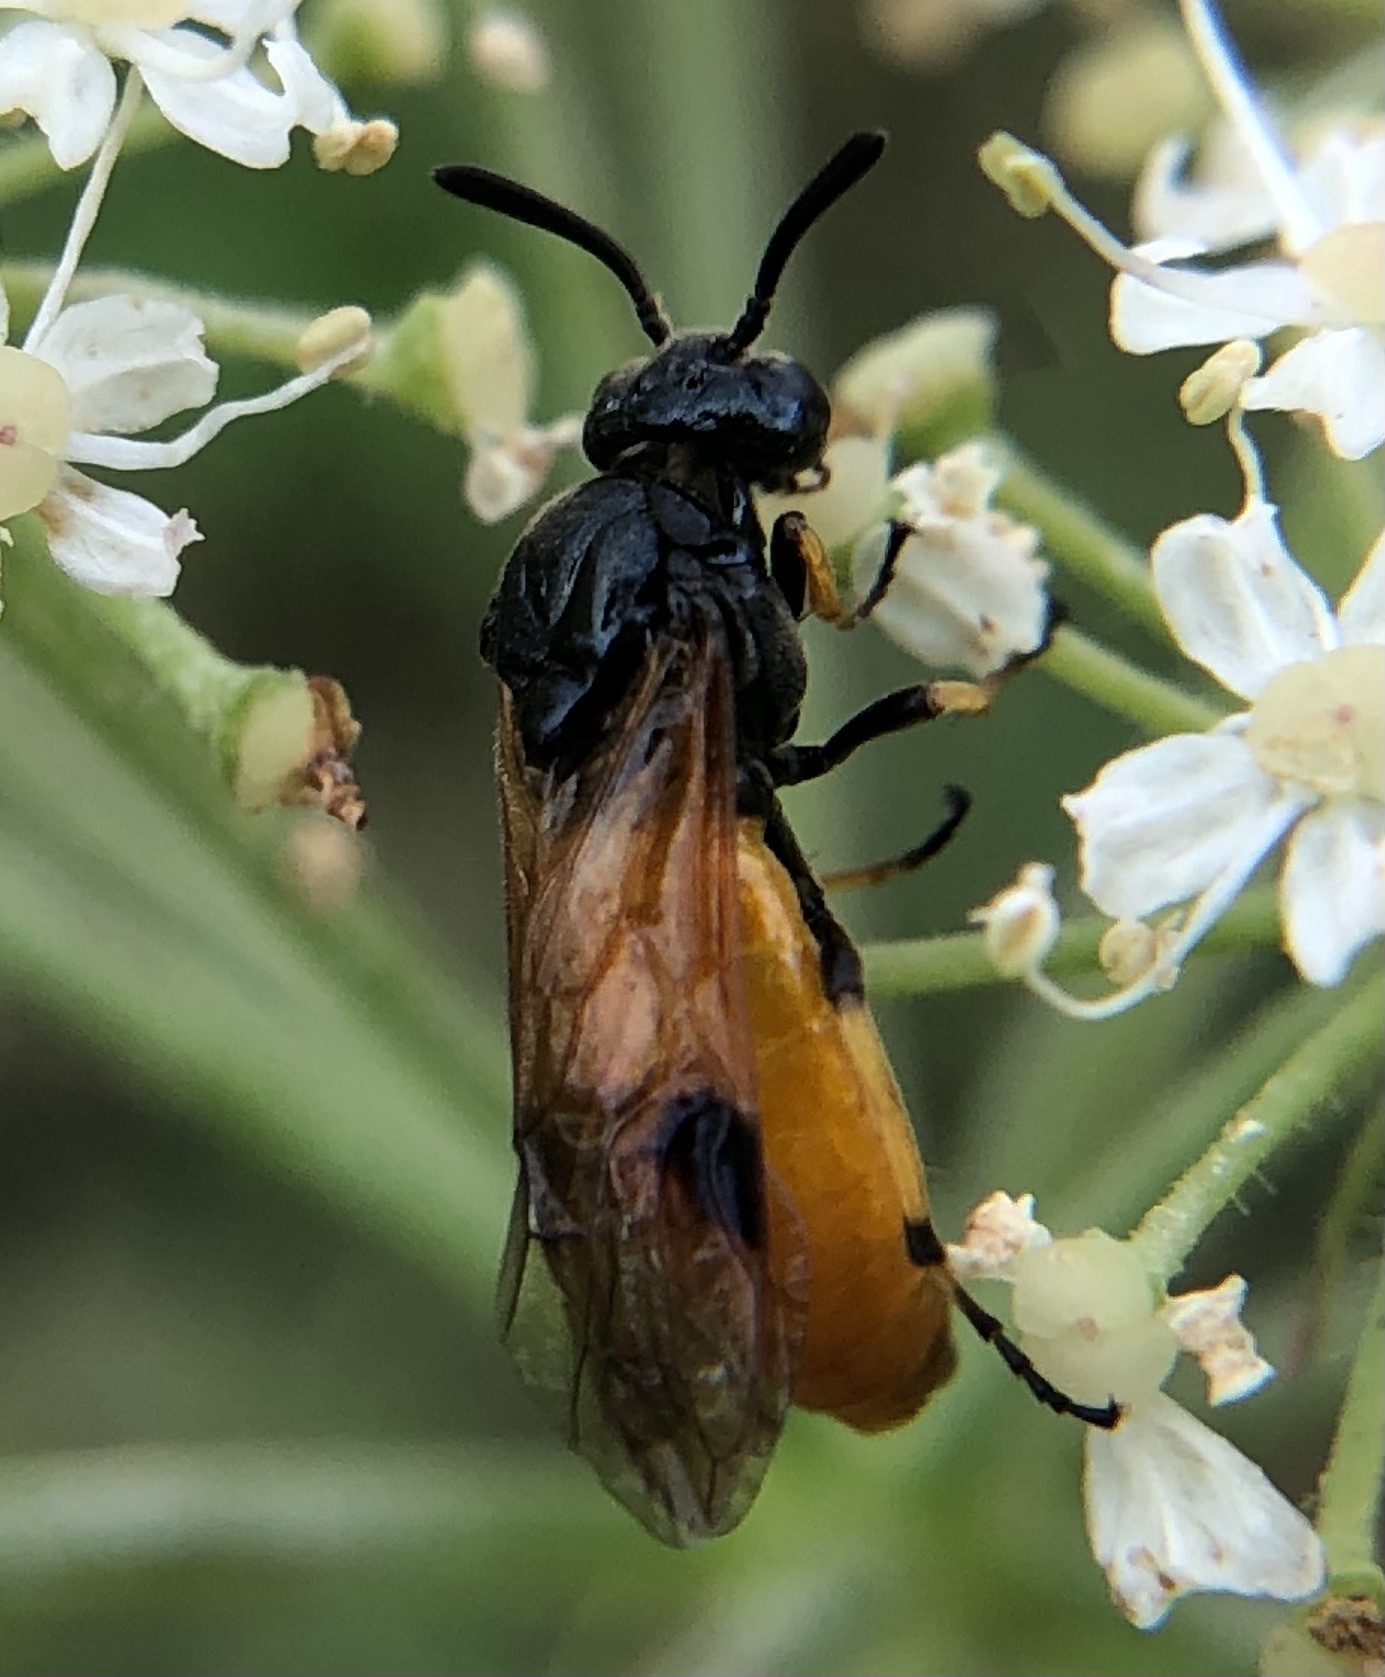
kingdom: Animalia
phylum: Arthropoda
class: Insecta
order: Hymenoptera
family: Argidae
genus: Arge
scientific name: Arge melanochra
